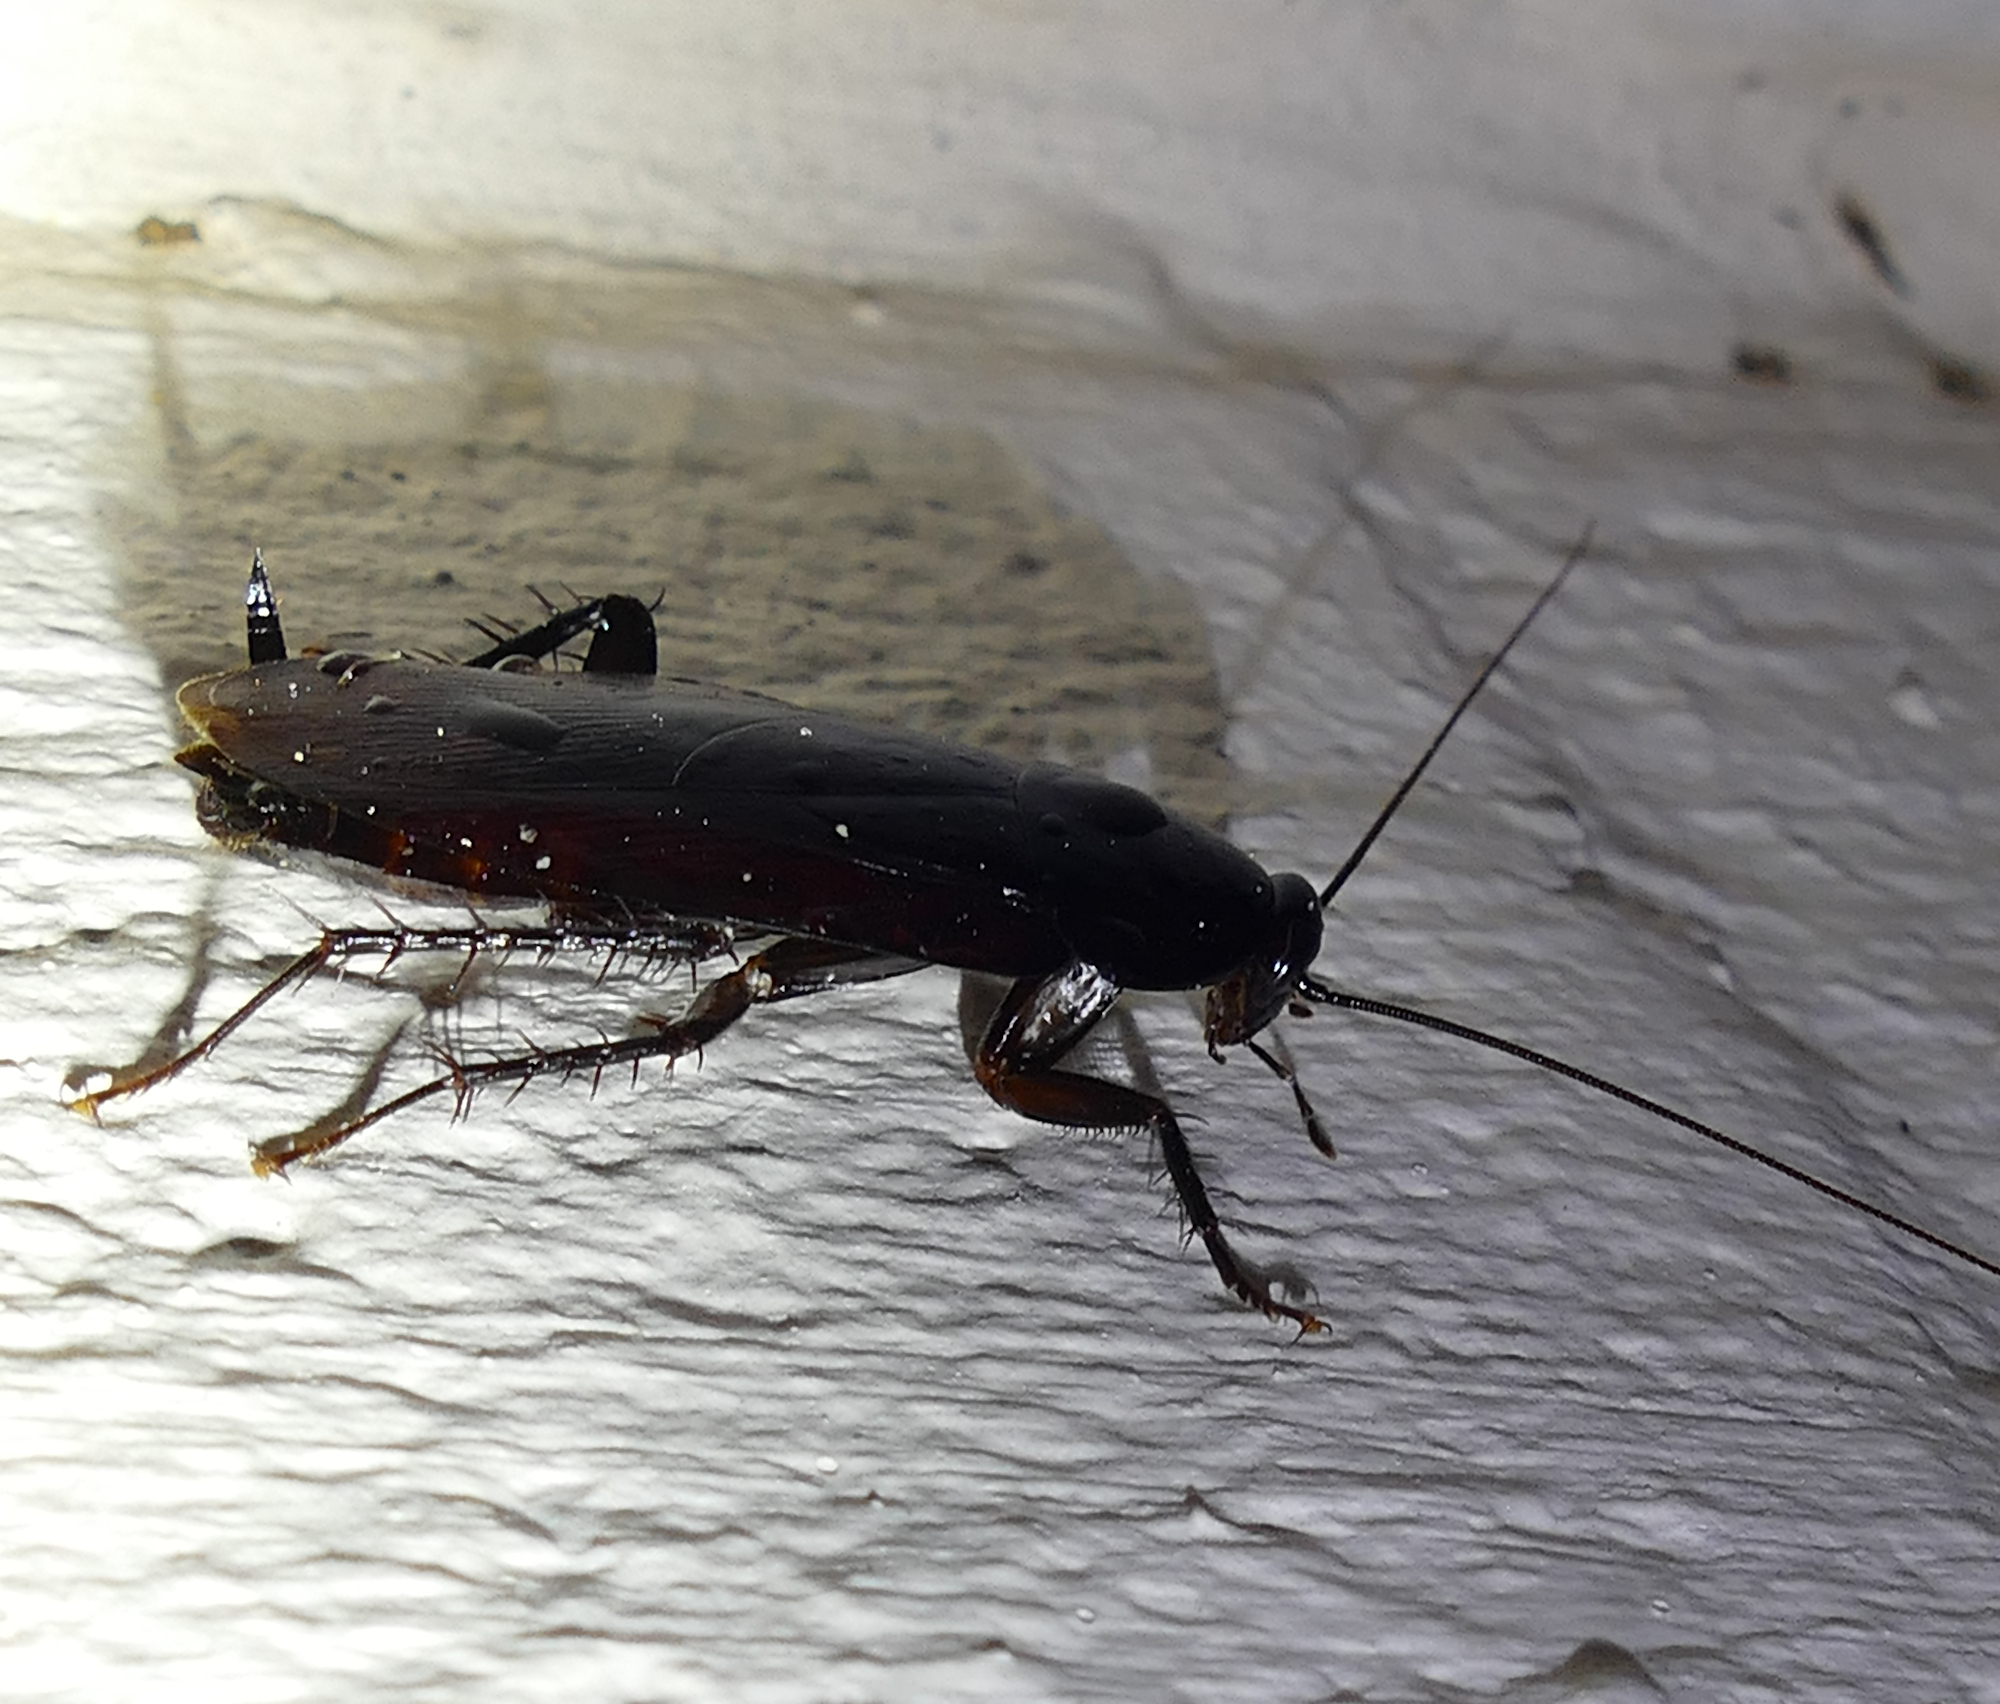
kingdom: Animalia
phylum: Arthropoda
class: Insecta
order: Blattodea
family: Blattidae
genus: Periplaneta
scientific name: Periplaneta fuliginosa
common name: Smokeybrown cockroad
